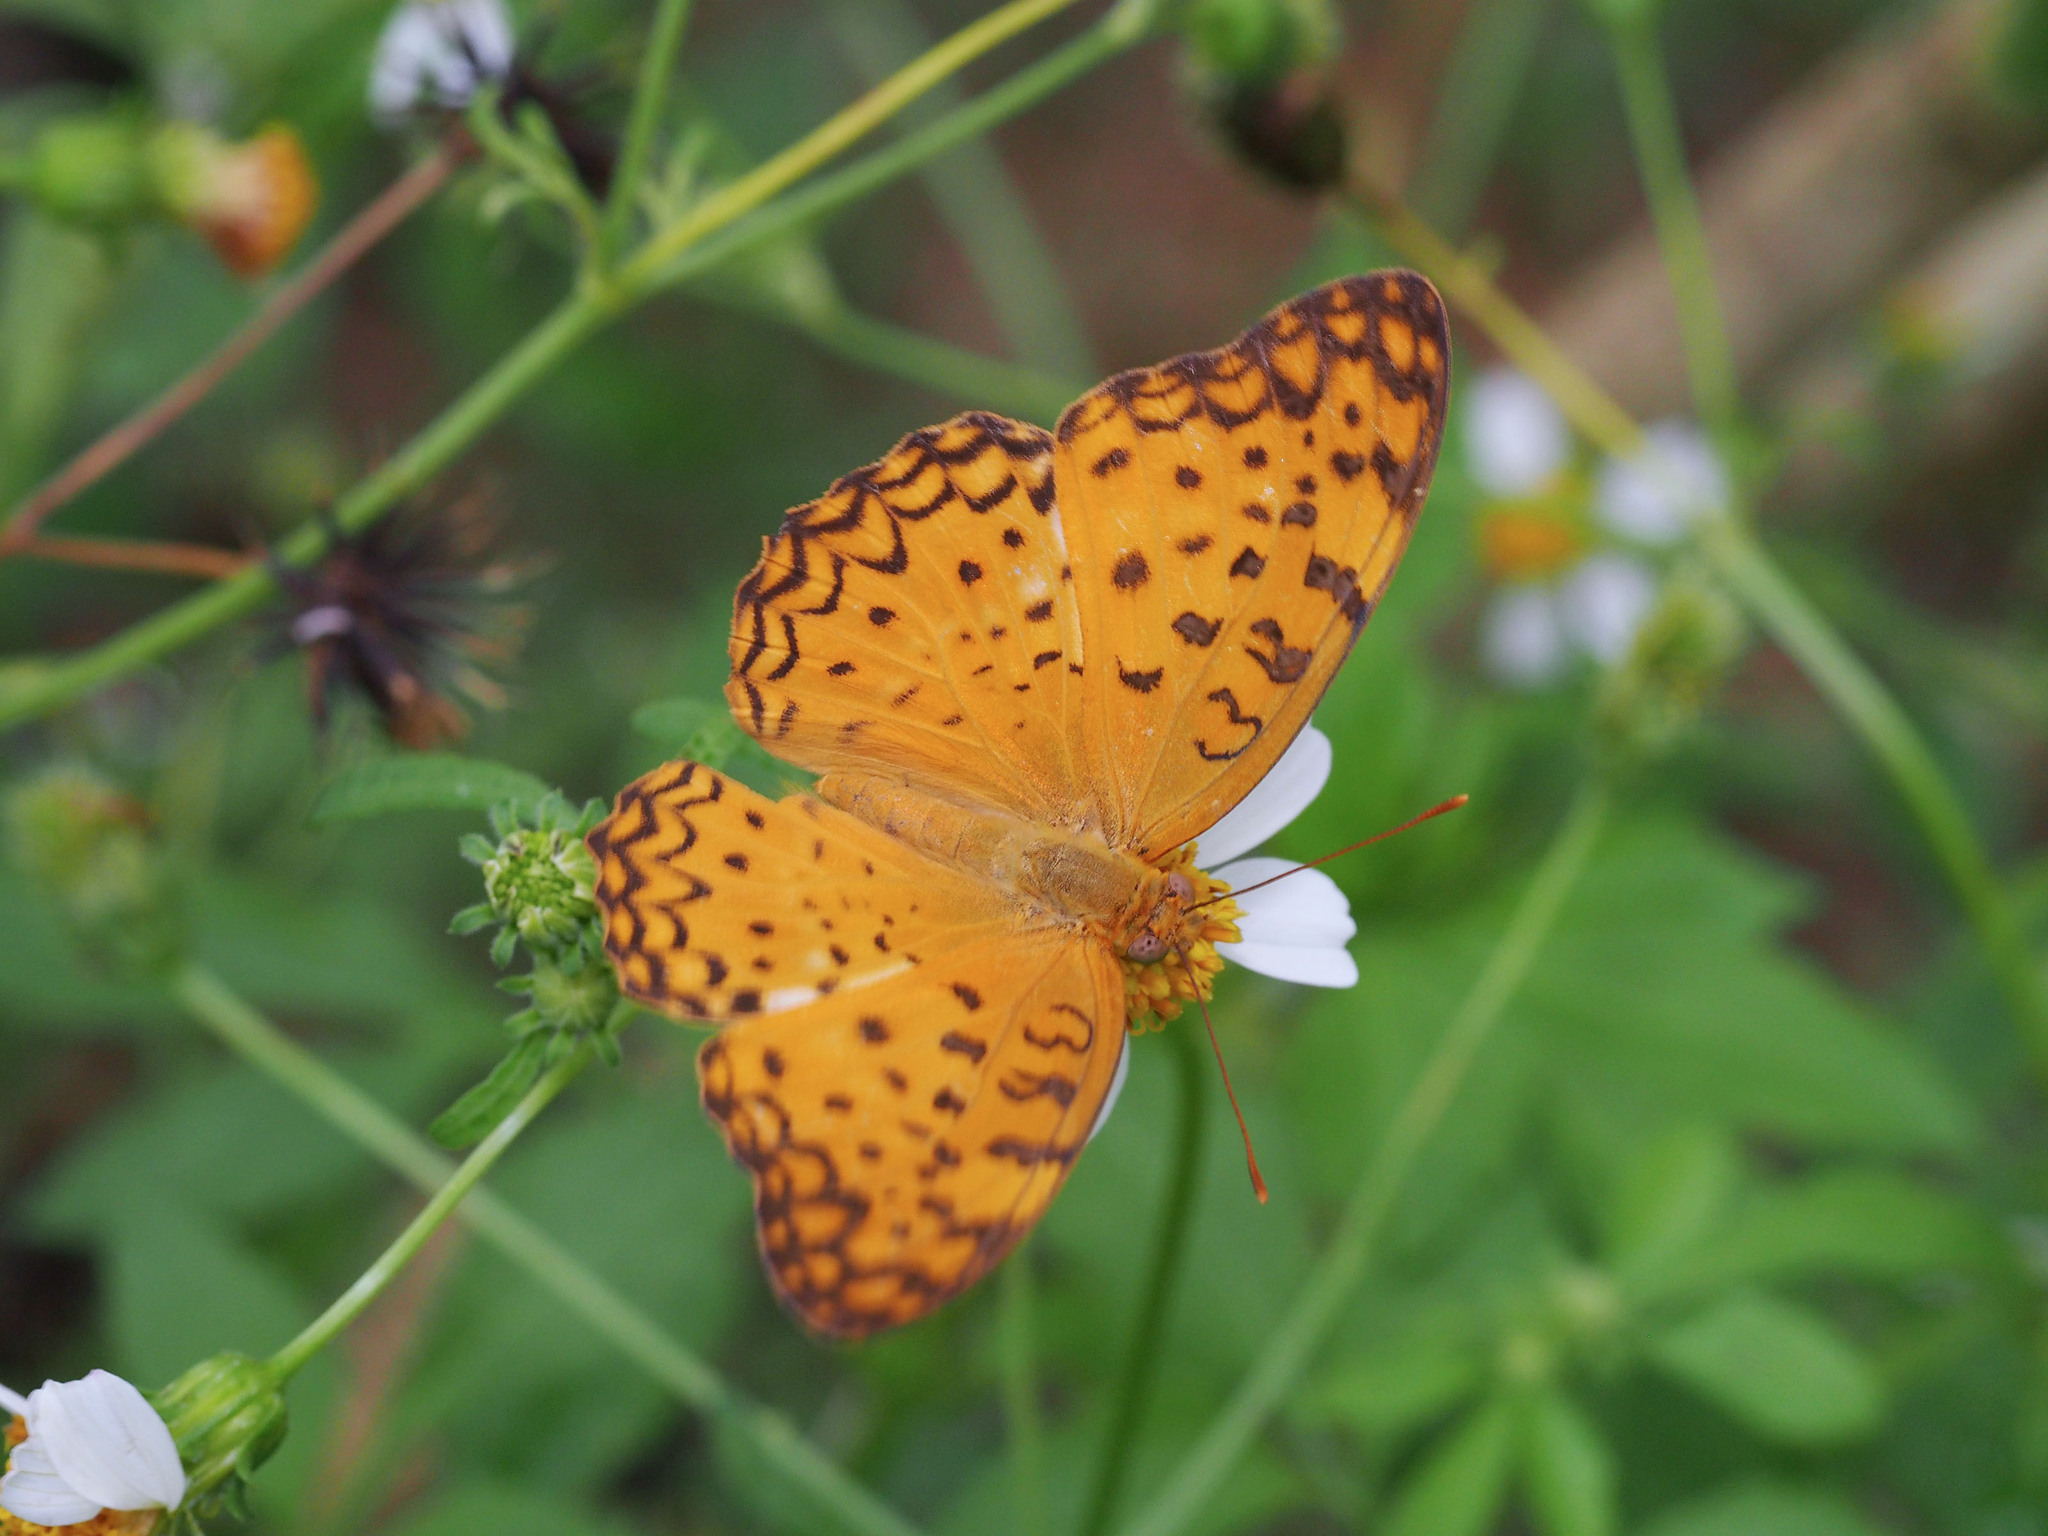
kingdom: Animalia
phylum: Arthropoda
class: Insecta
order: Lepidoptera
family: Nymphalidae
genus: Phalanta
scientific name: Phalanta phalantha
